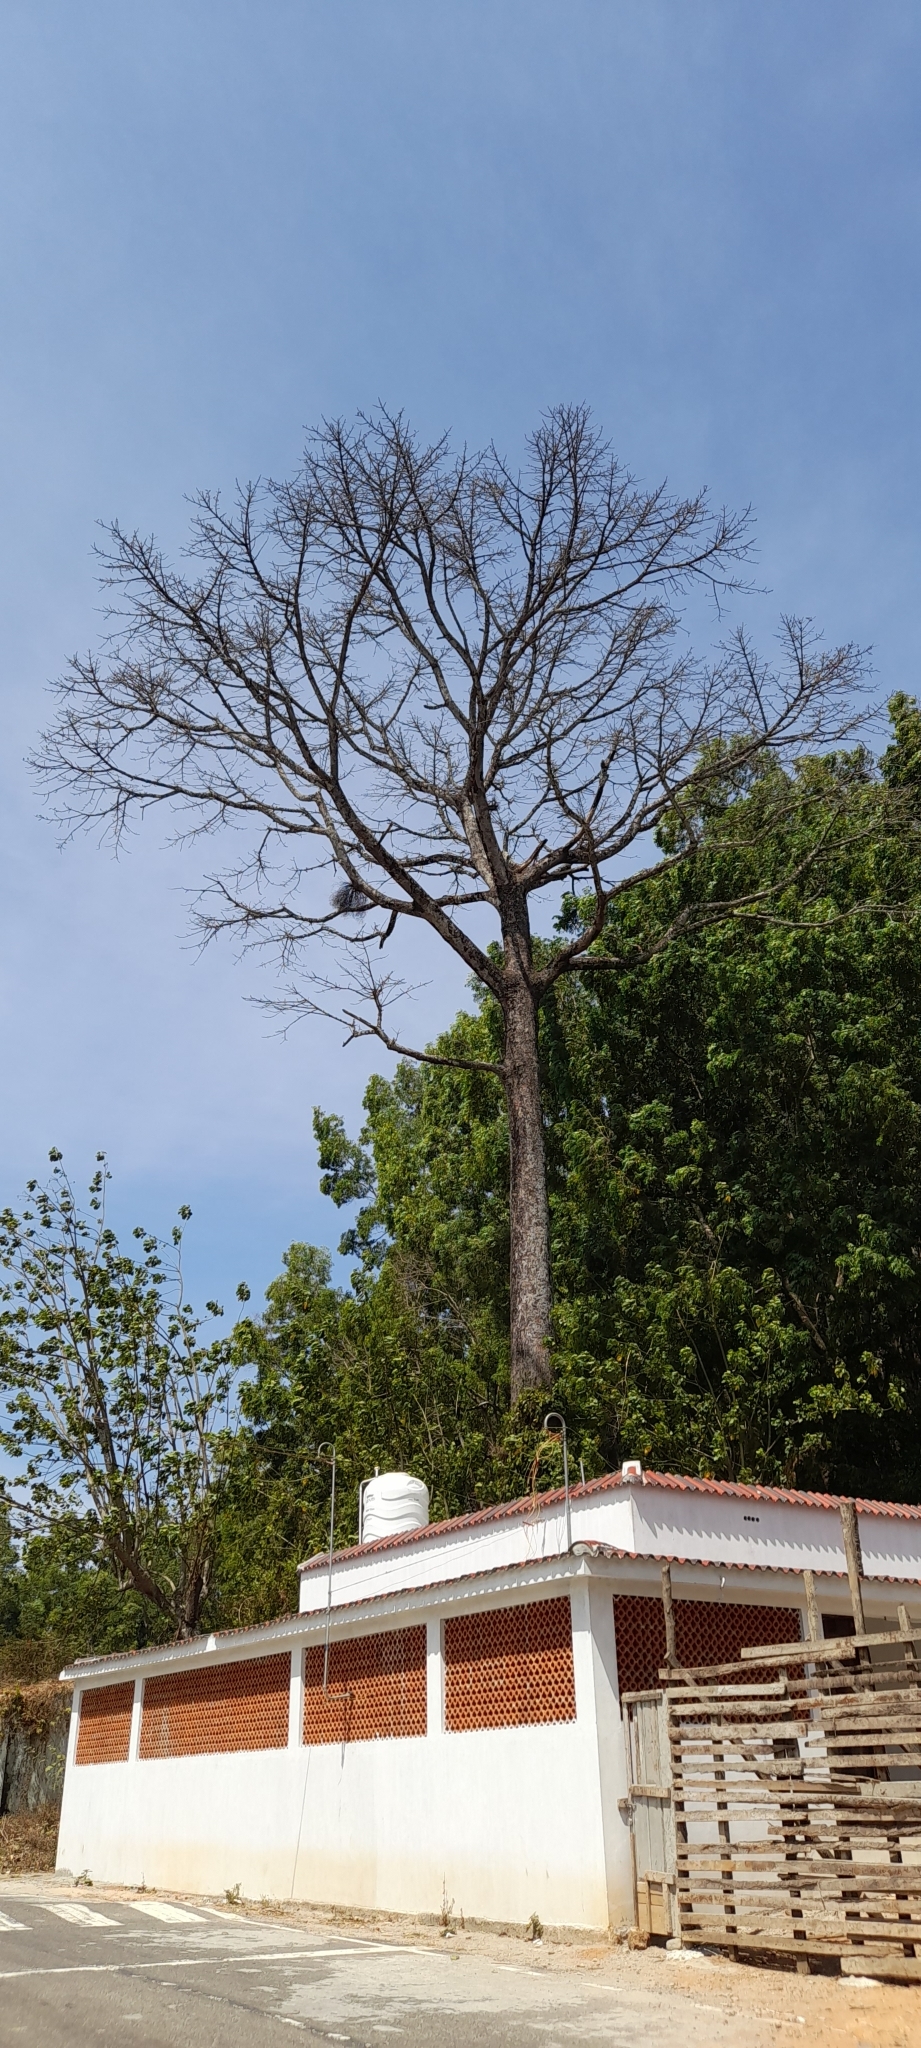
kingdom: Plantae
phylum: Tracheophyta
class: Magnoliopsida
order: Malvales
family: Malvaceae
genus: Bombax
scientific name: Bombax ceiba
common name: Northern-cottonwood
